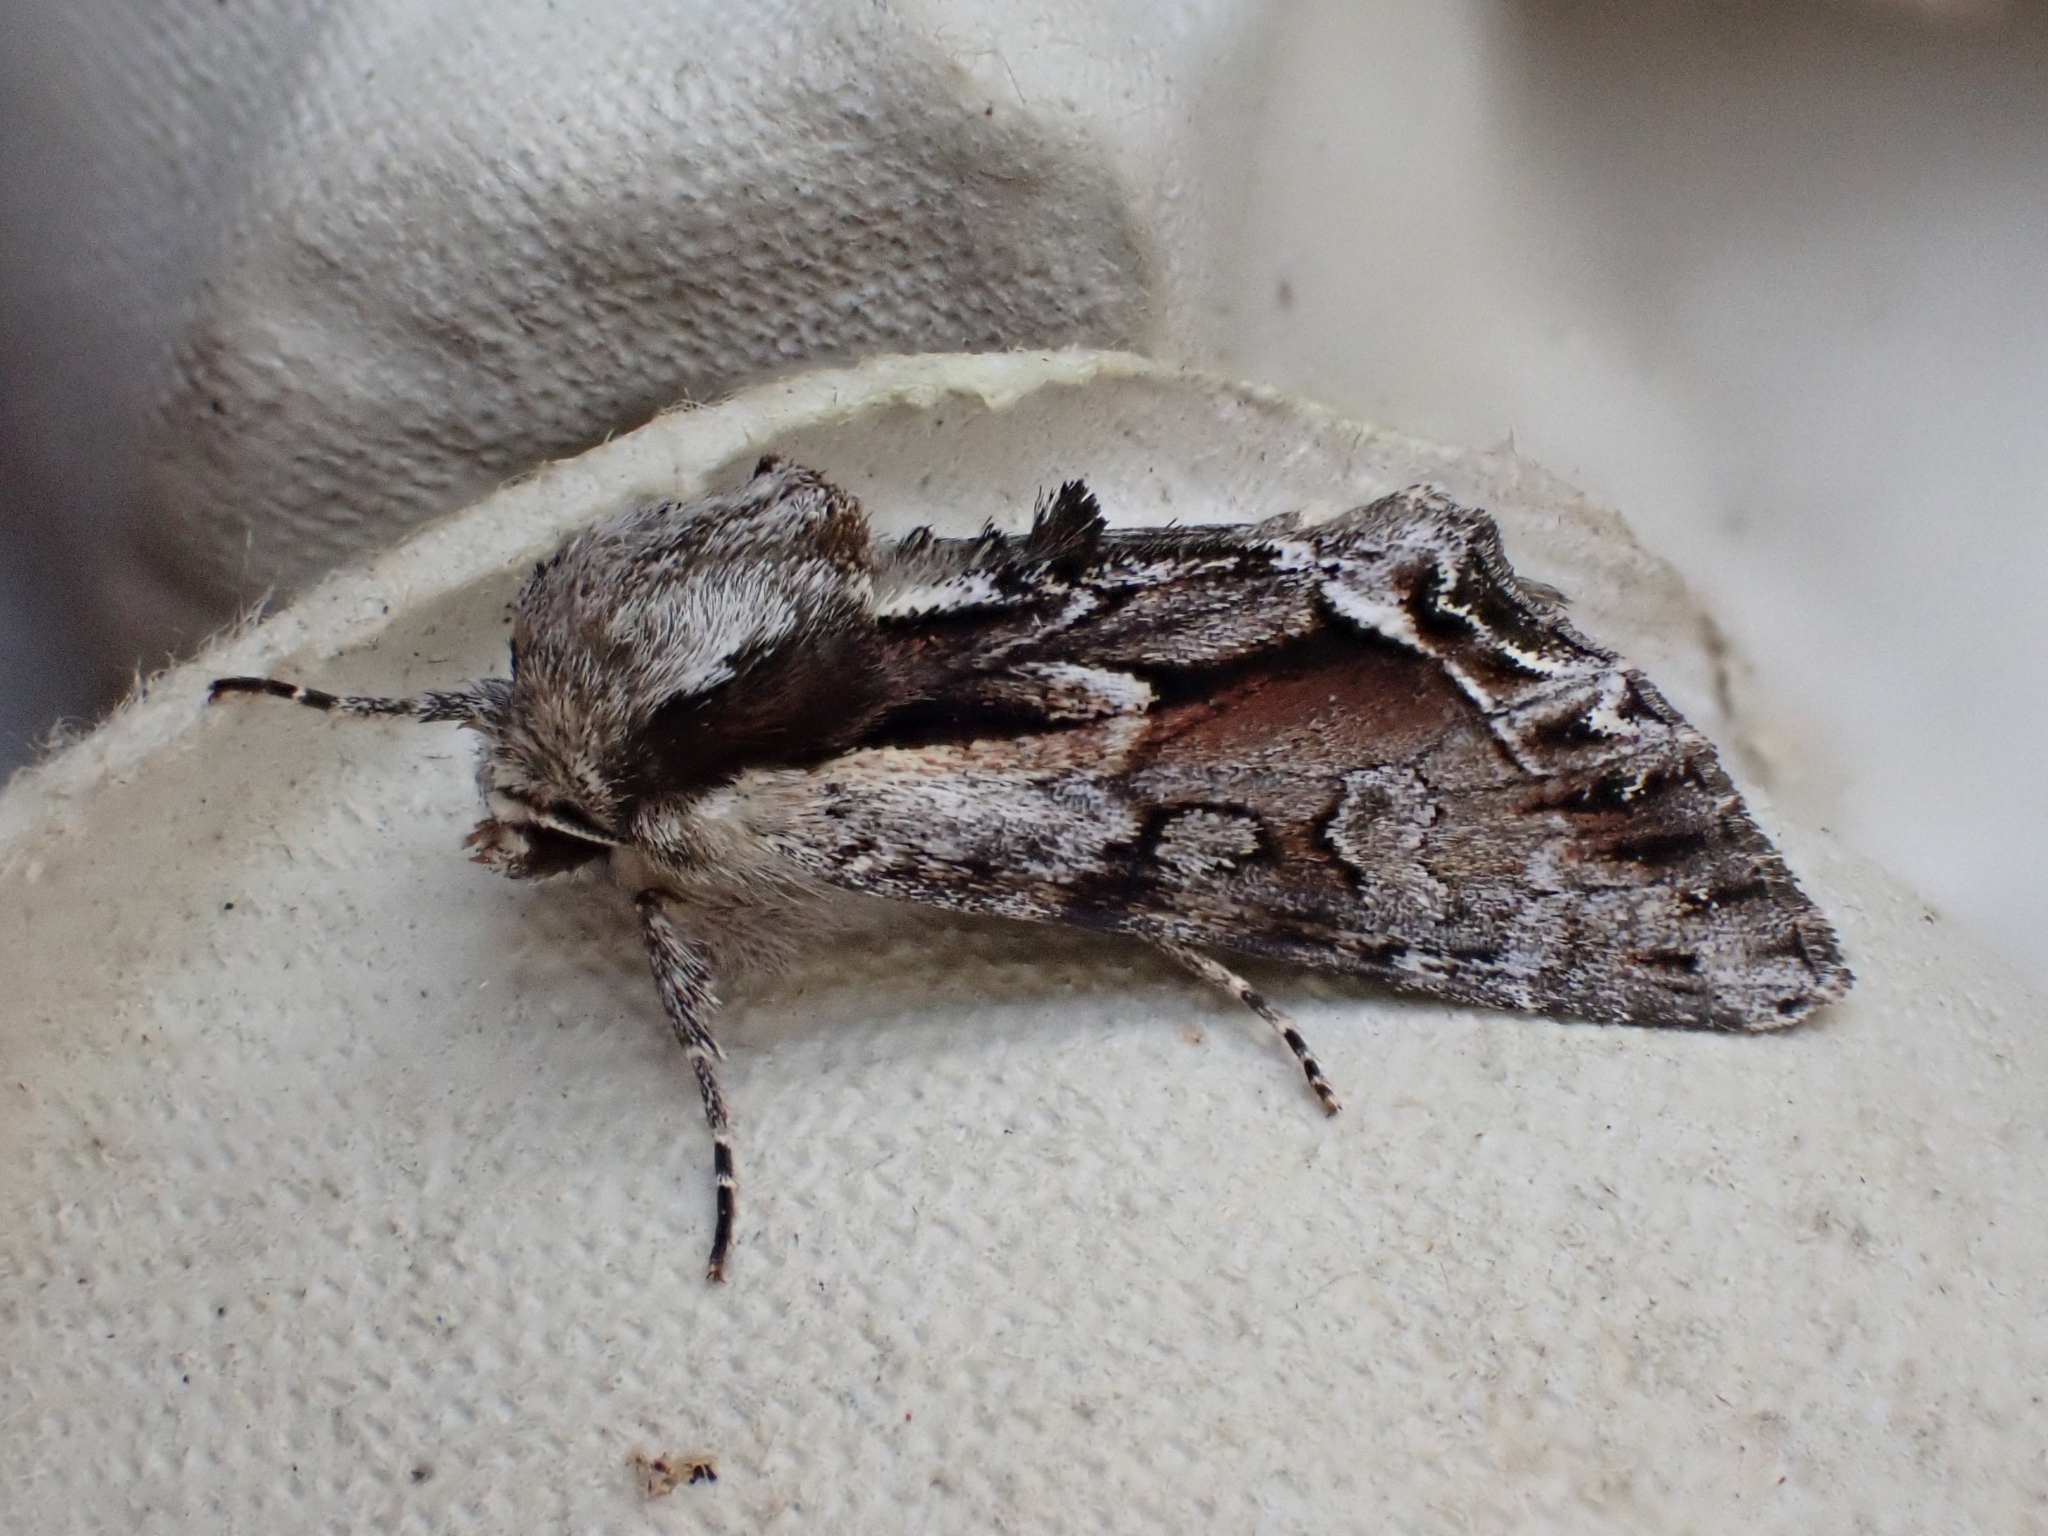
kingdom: Animalia
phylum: Arthropoda
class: Insecta
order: Lepidoptera
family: Noctuidae
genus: Hyppa
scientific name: Hyppa rectilinea
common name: Saxon
